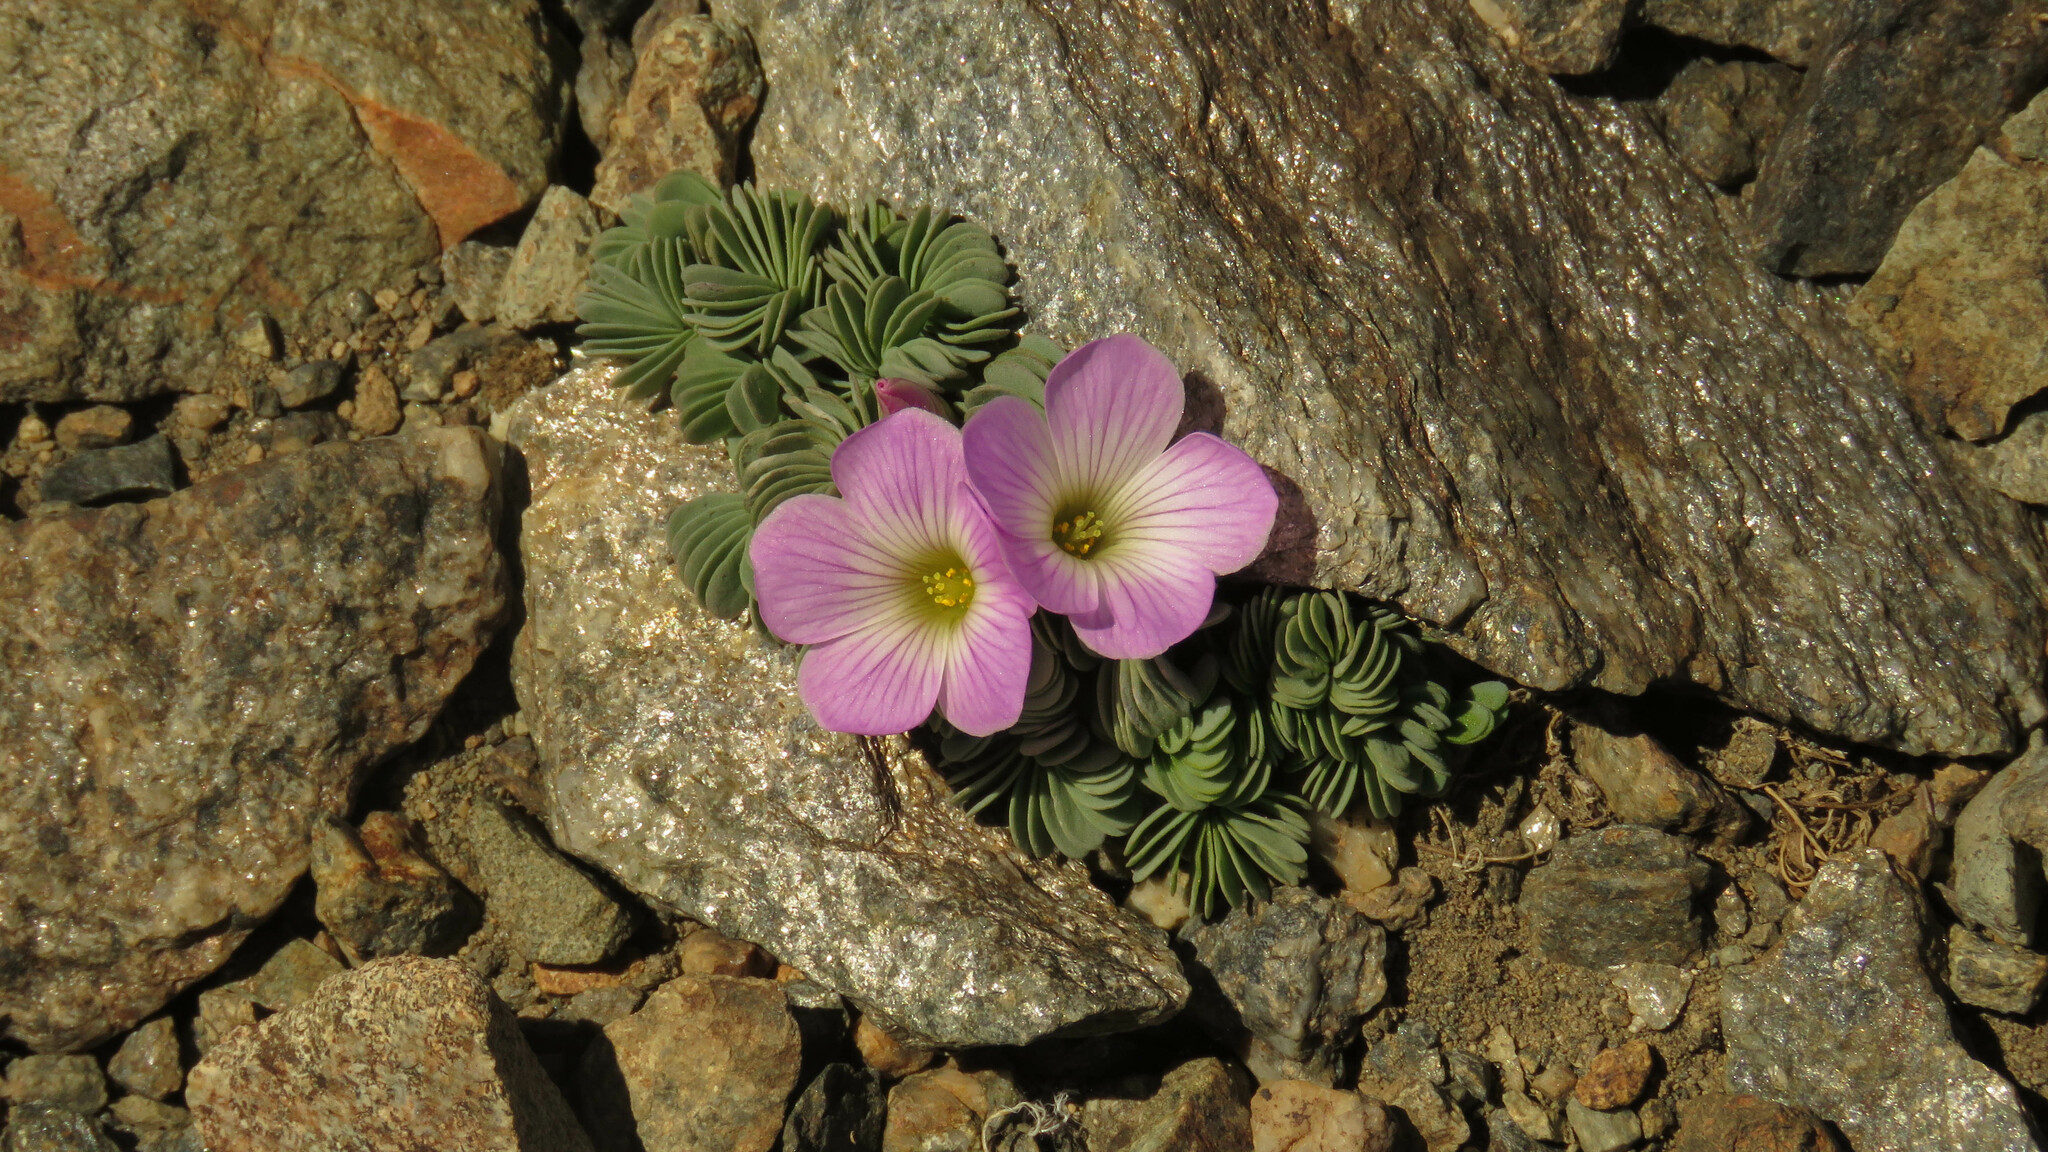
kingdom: Plantae
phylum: Tracheophyta
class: Magnoliopsida
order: Oxalidales
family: Oxalidaceae
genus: Oxalis
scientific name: Oxalis adenophylla
